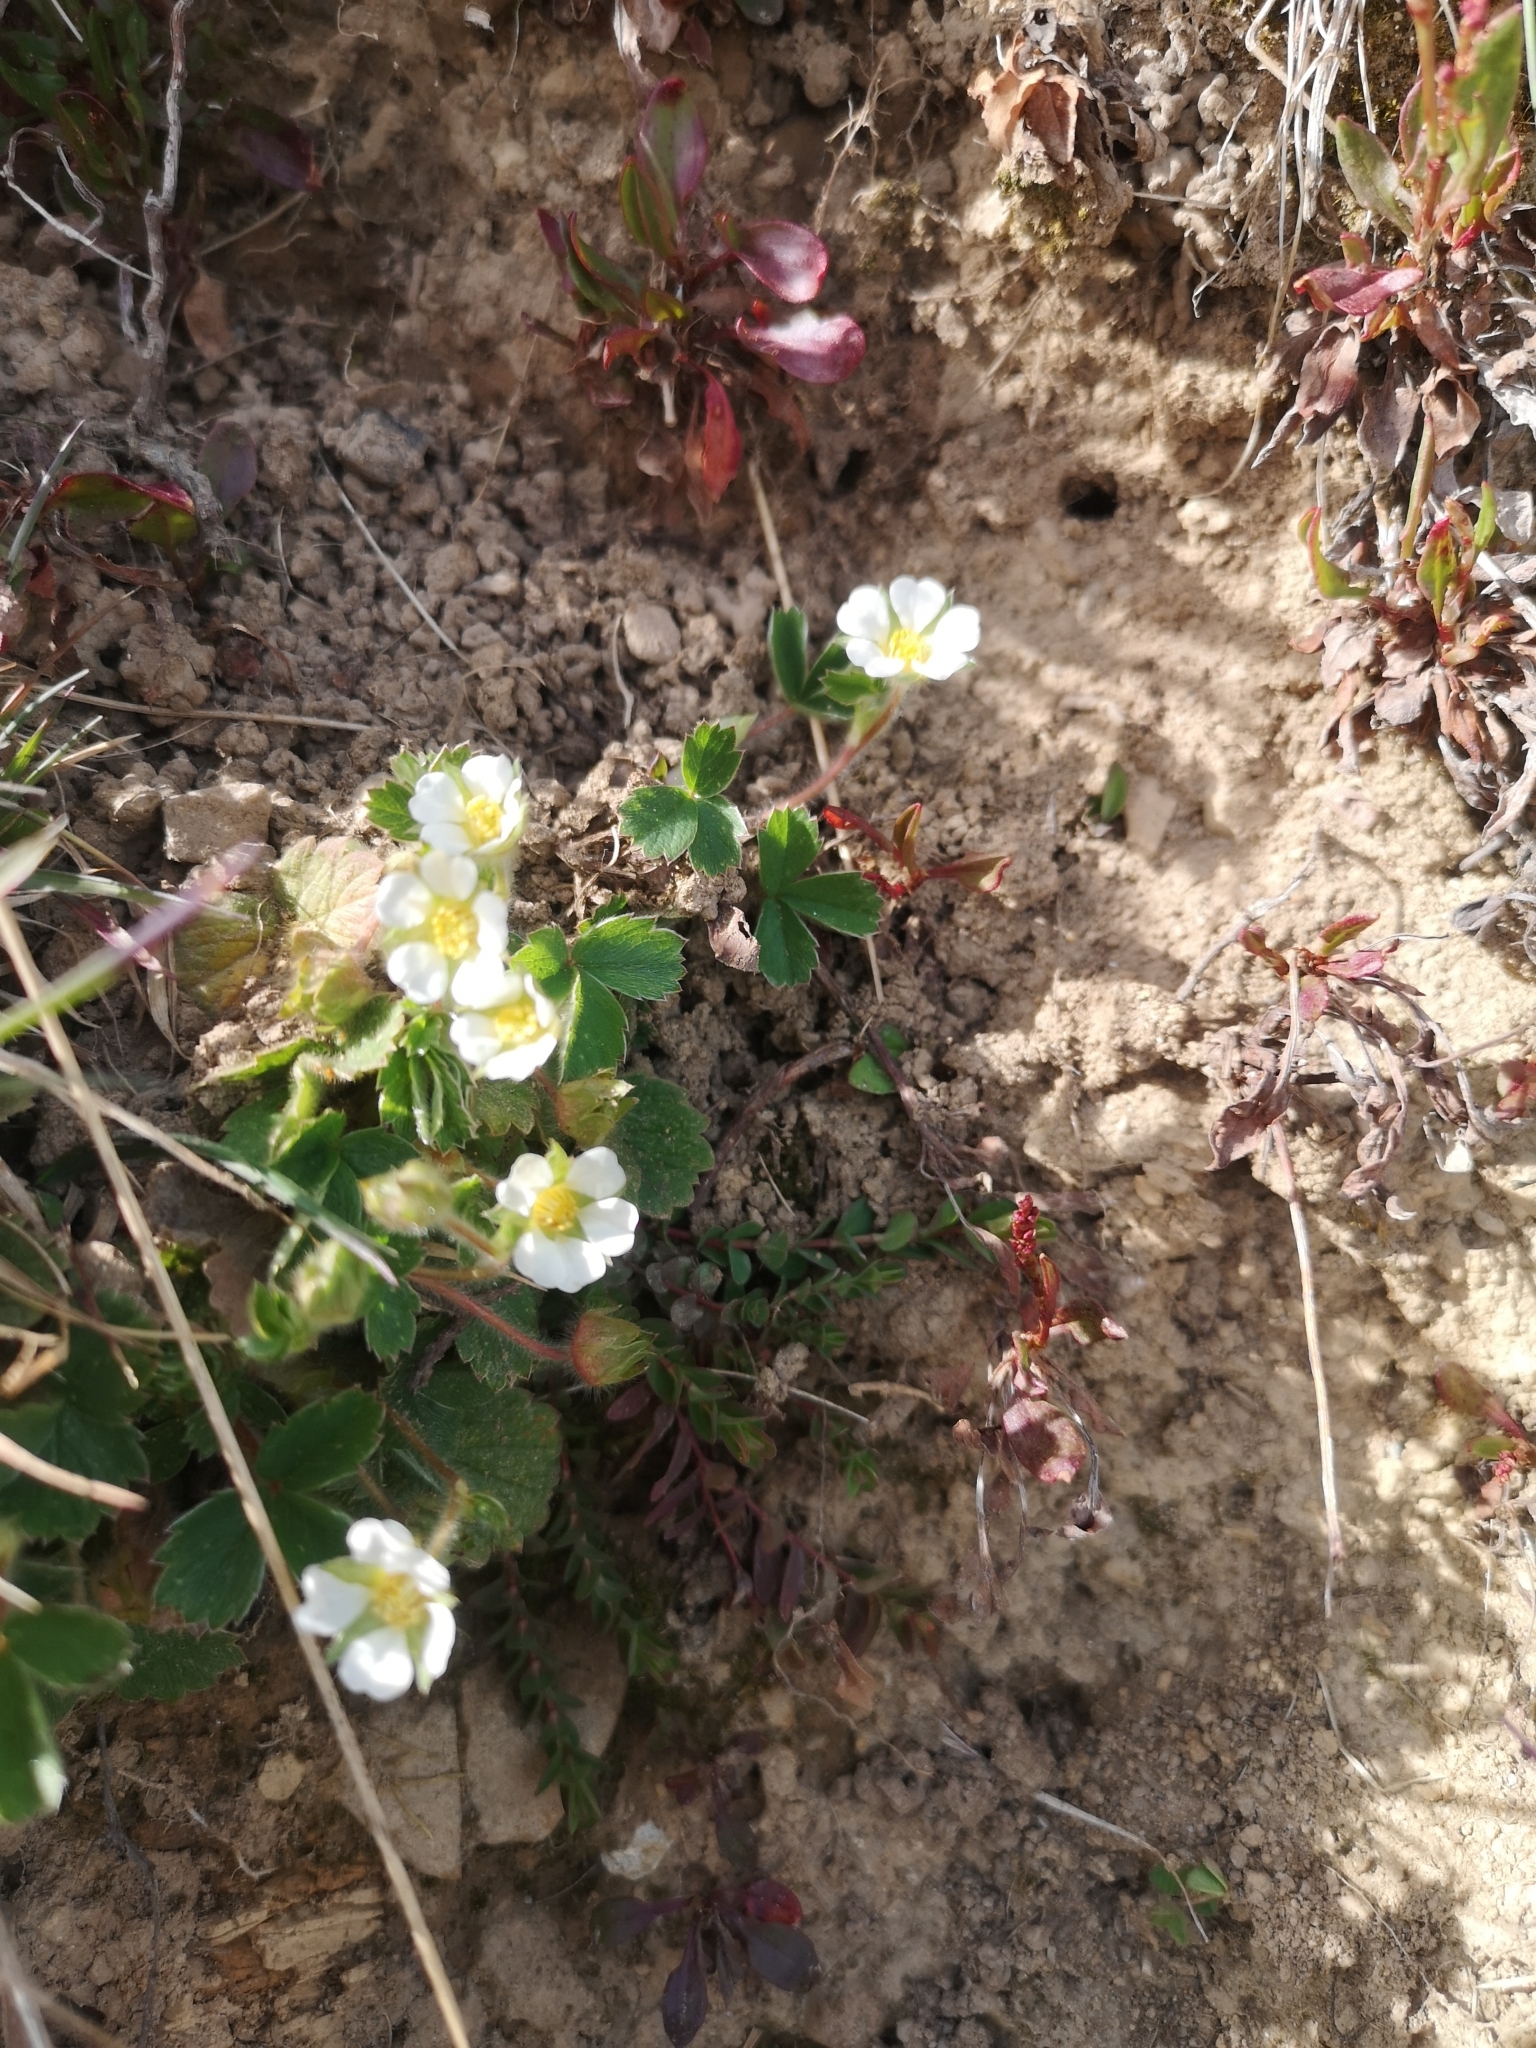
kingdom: Plantae
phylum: Tracheophyta
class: Magnoliopsida
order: Rosales
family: Rosaceae
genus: Potentilla
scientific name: Potentilla sterilis
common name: Barren strawberry
